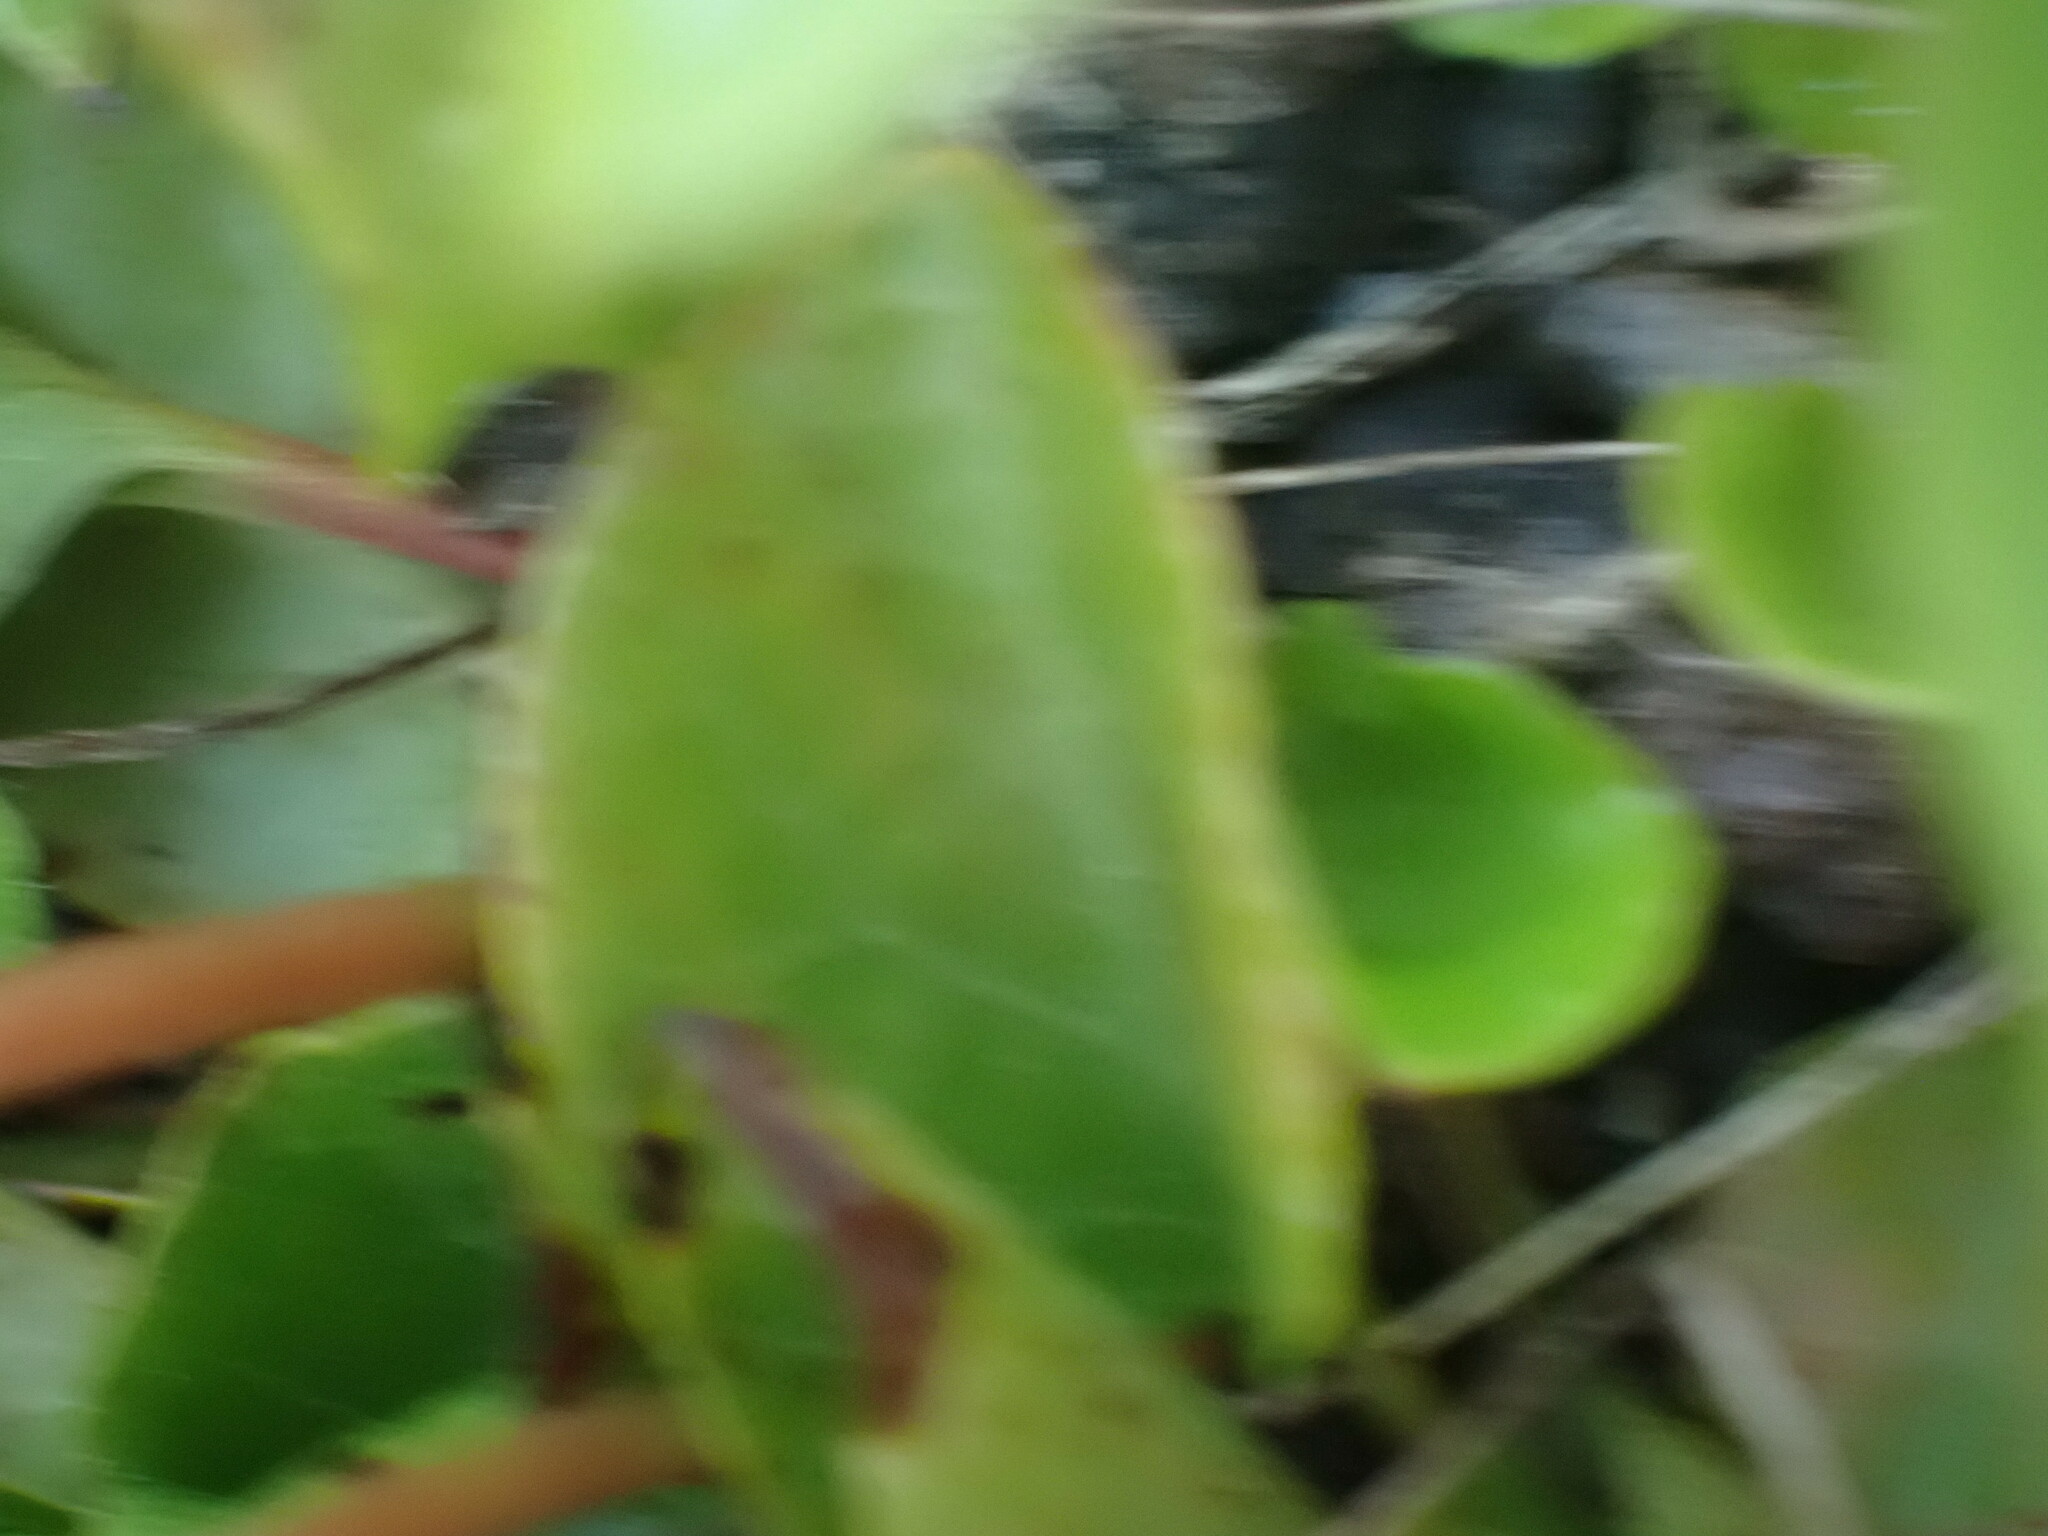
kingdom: Plantae
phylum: Tracheophyta
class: Magnoliopsida
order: Ericales
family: Ericaceae
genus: Pyrola
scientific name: Pyrola asarifolia
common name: Bog wintergreen
